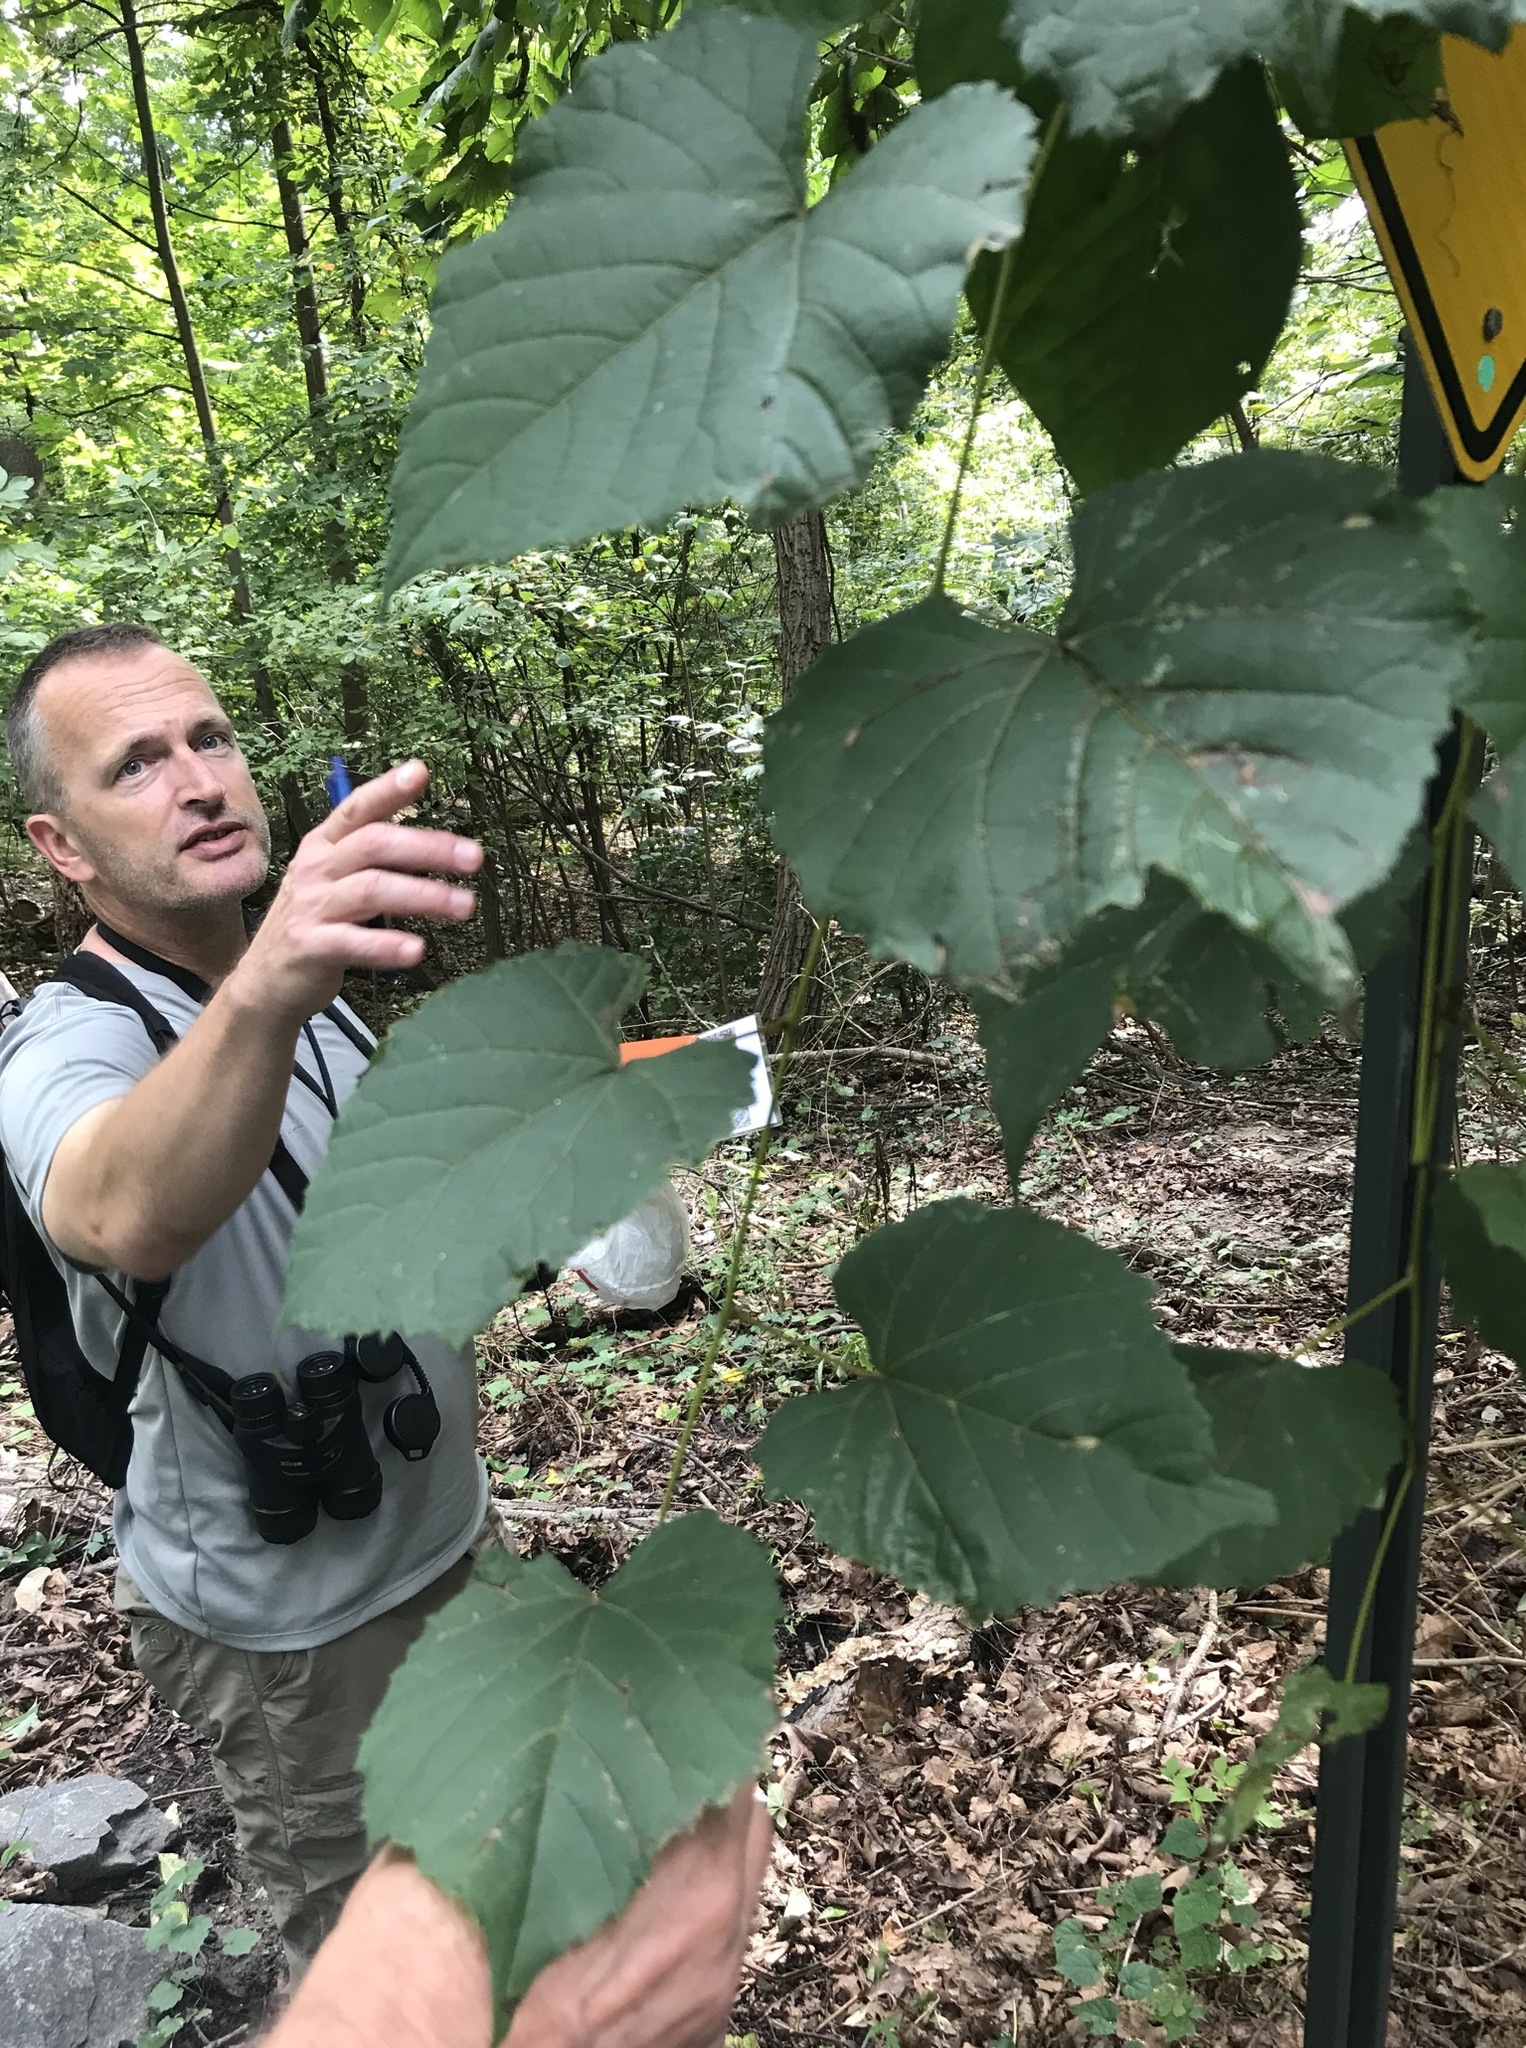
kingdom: Plantae
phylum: Tracheophyta
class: Magnoliopsida
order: Vitales
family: Vitaceae
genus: Ampelopsis
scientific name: Ampelopsis glandulosa
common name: Amur peppervine
